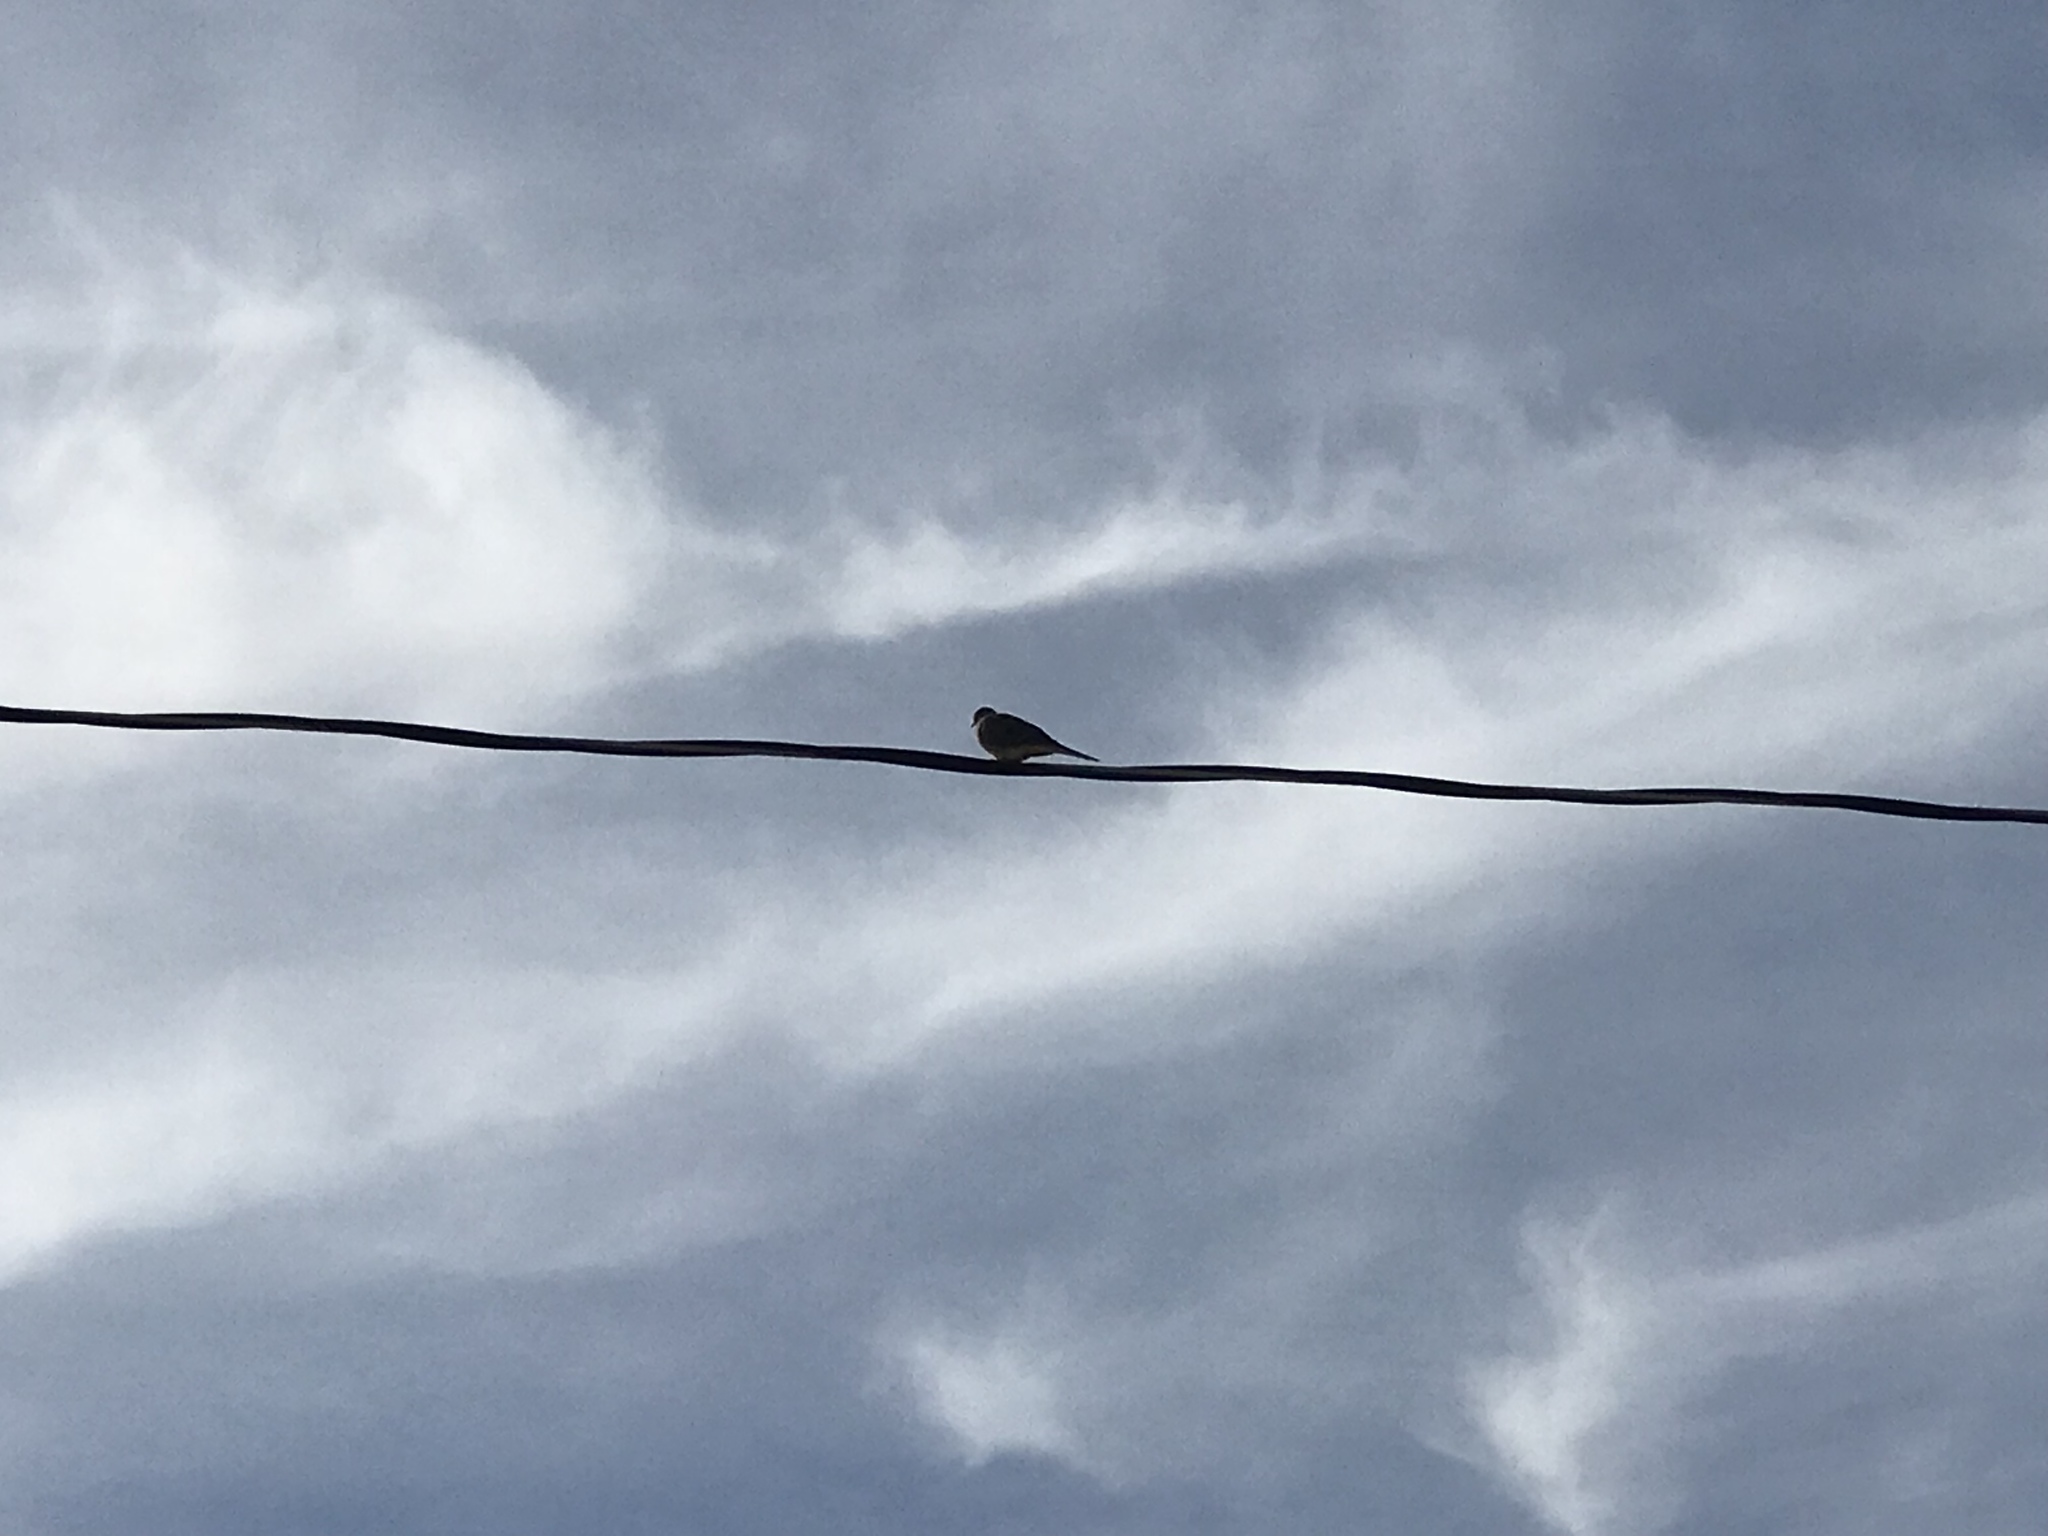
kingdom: Animalia
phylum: Chordata
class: Aves
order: Columbiformes
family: Columbidae
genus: Zenaida
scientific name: Zenaida macroura
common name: Mourning dove
